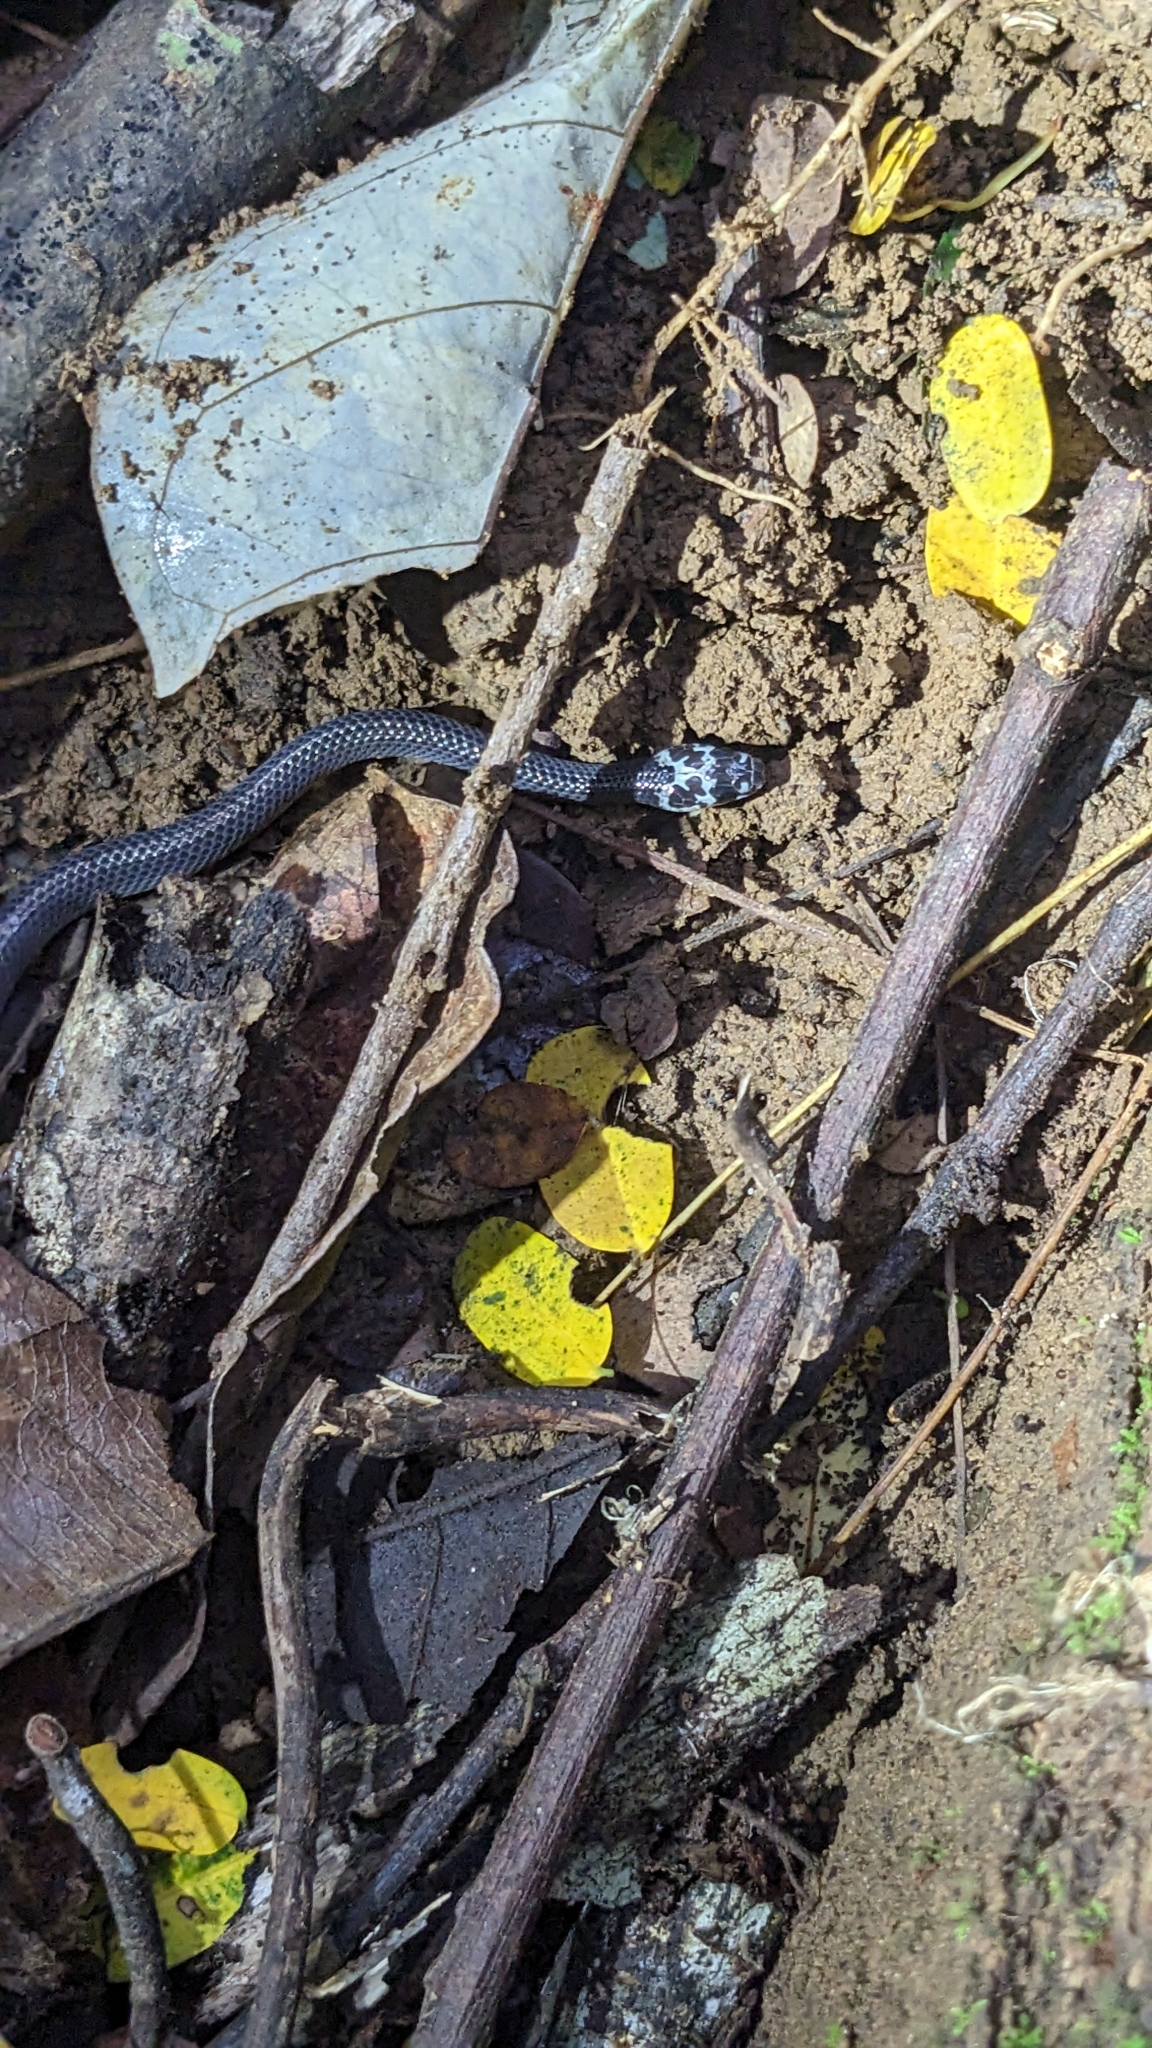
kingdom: Animalia
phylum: Chordata
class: Squamata
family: Colubridae
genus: Stegonotus
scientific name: Stegonotus diehli
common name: Diehl’s little ground snake
